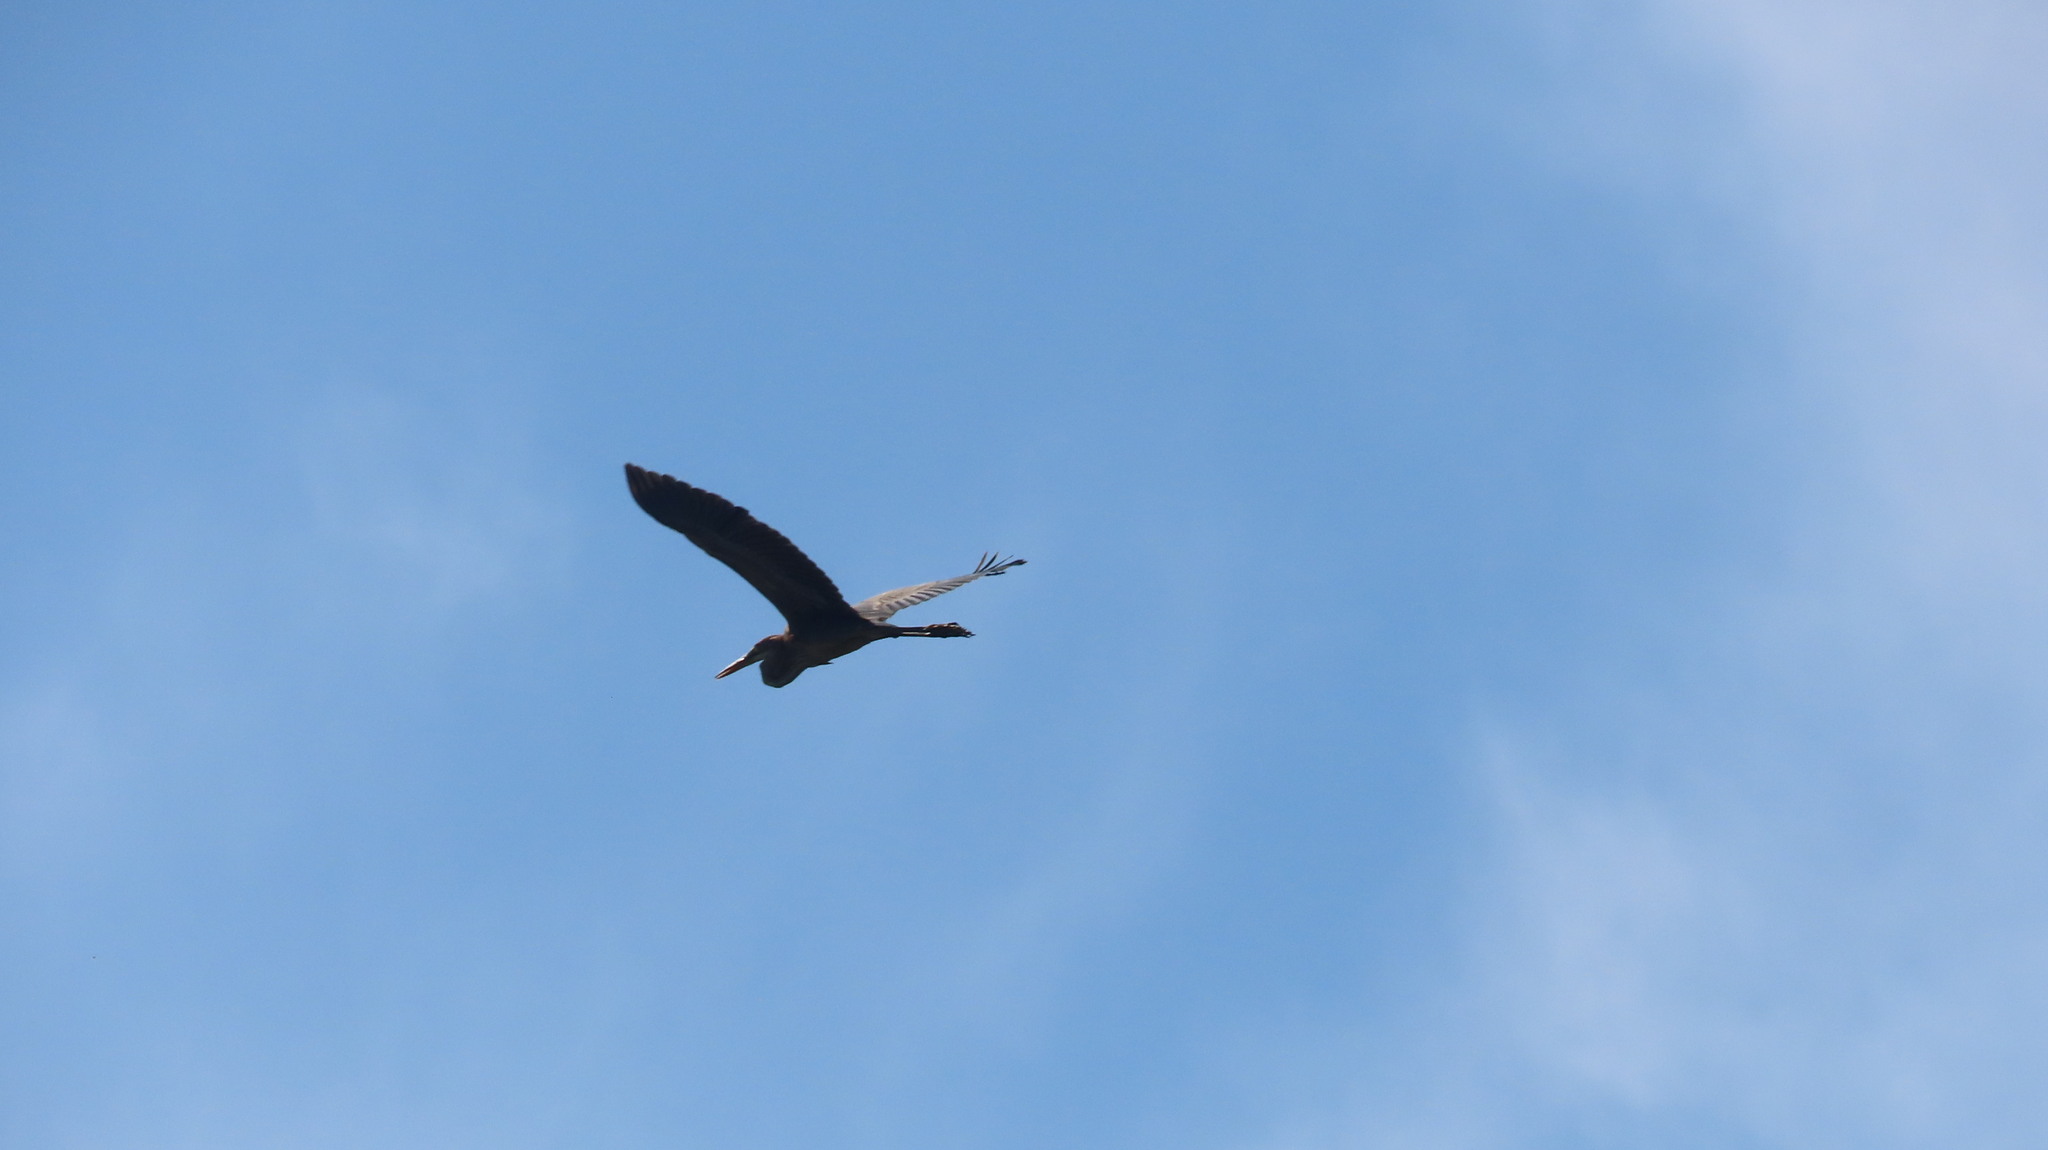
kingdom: Animalia
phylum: Chordata
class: Aves
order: Pelecaniformes
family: Ardeidae
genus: Ardea
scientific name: Ardea purpurea
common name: Purple heron
